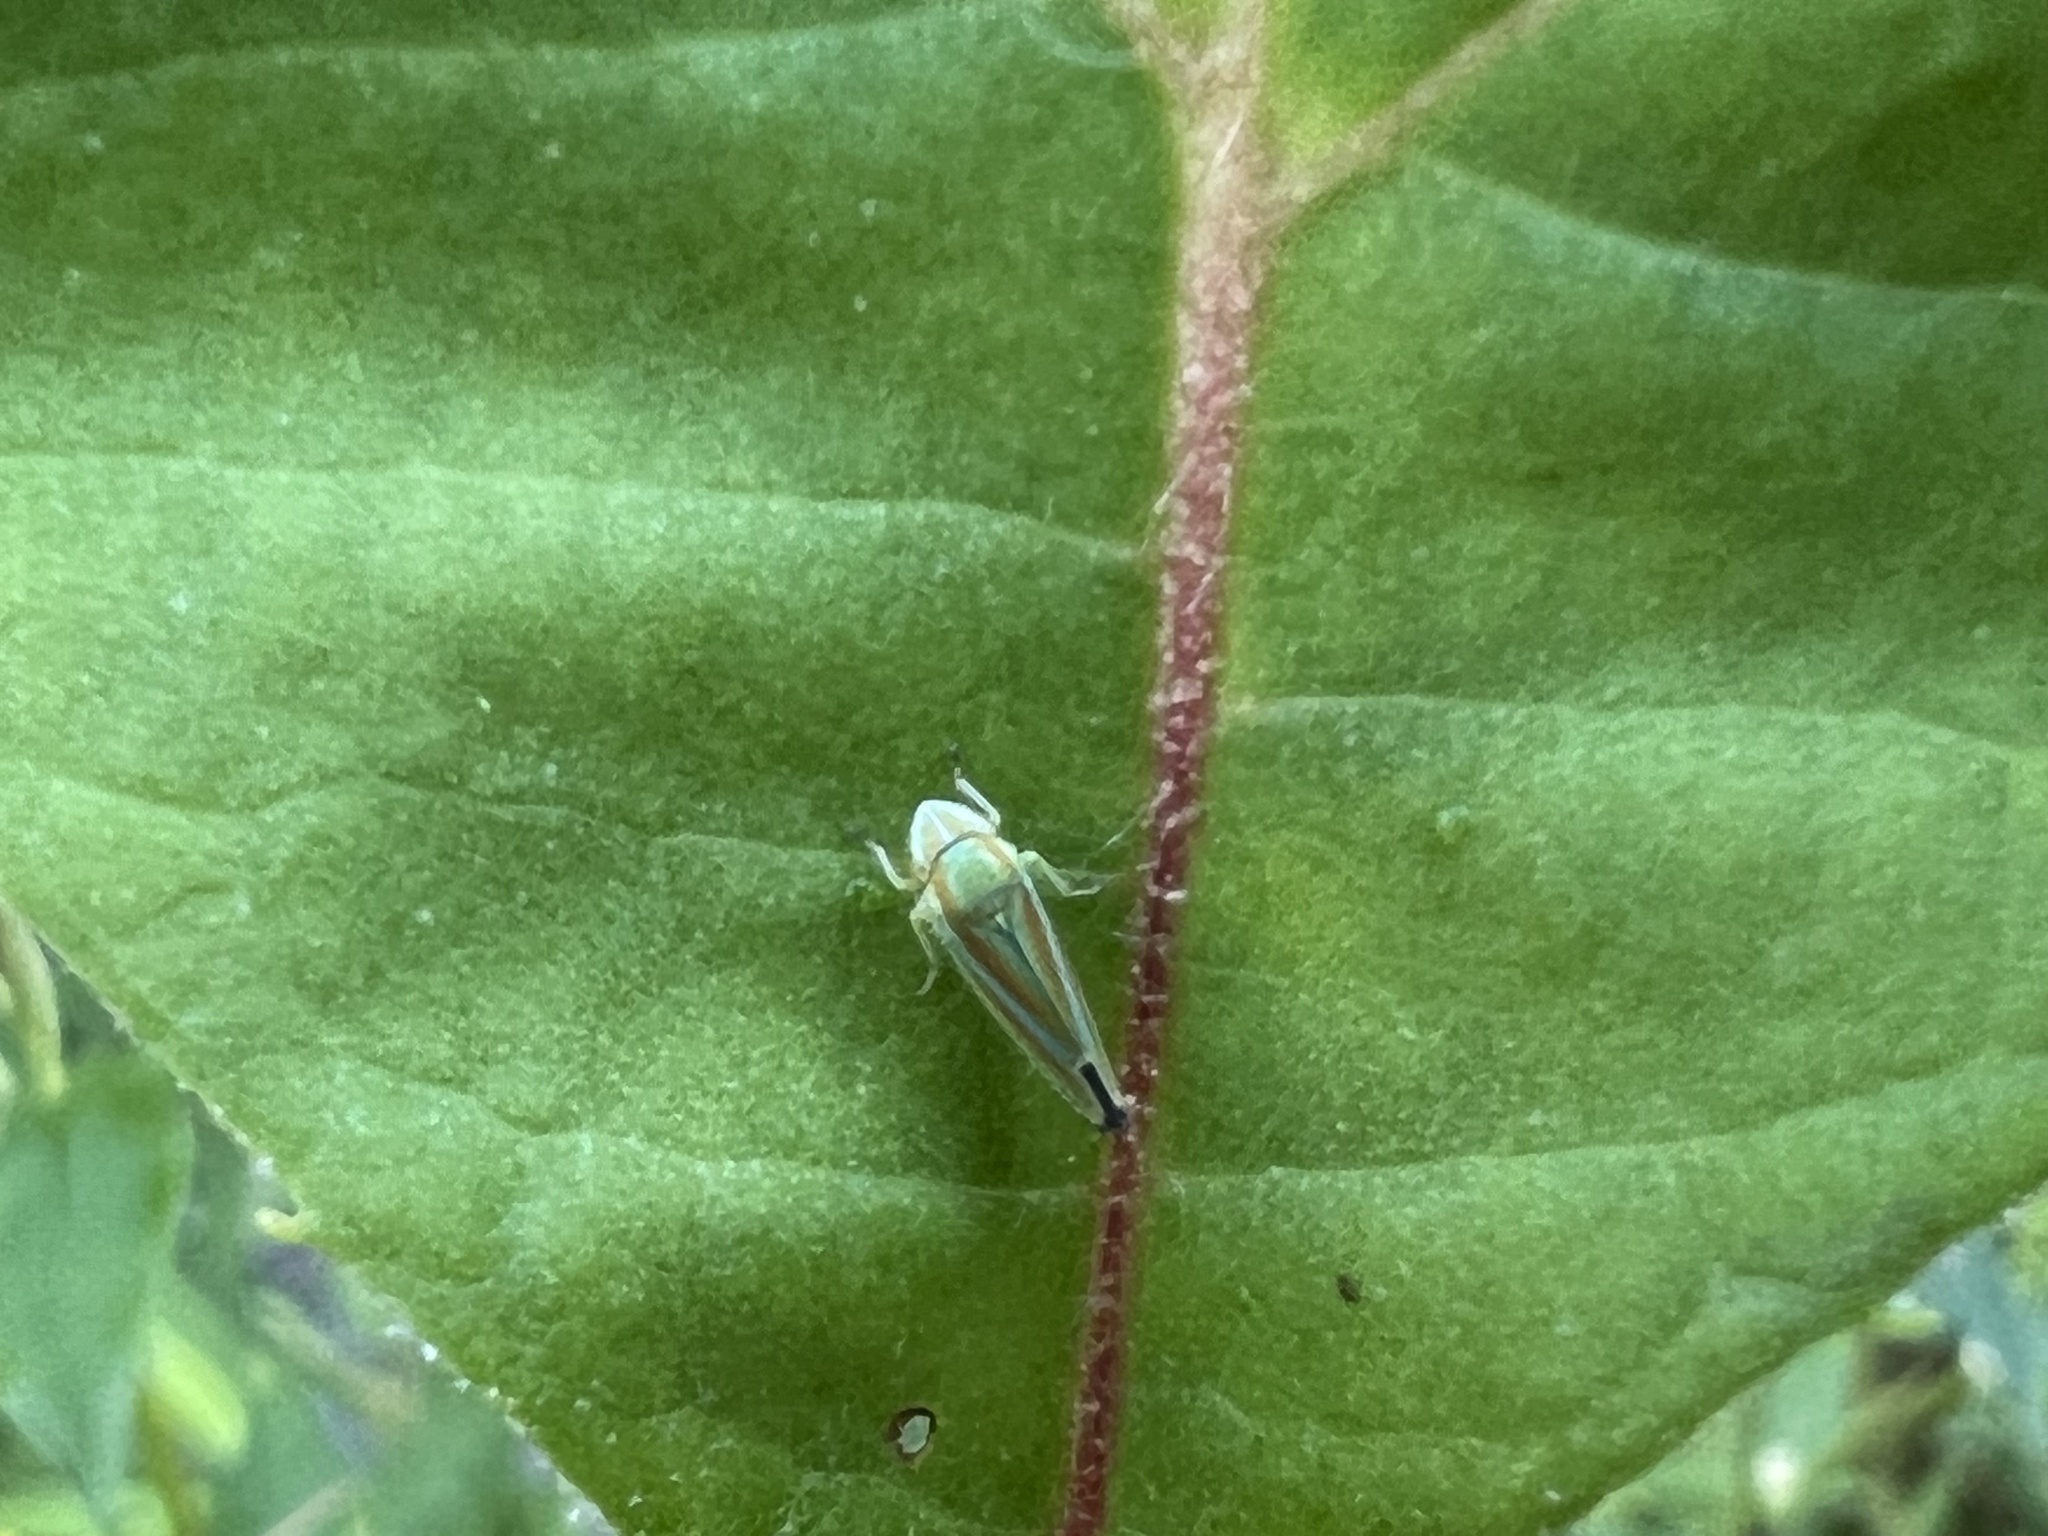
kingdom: Animalia
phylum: Arthropoda
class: Insecta
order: Hemiptera
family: Cicadellidae
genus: Graphocephala
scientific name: Graphocephala versuta
